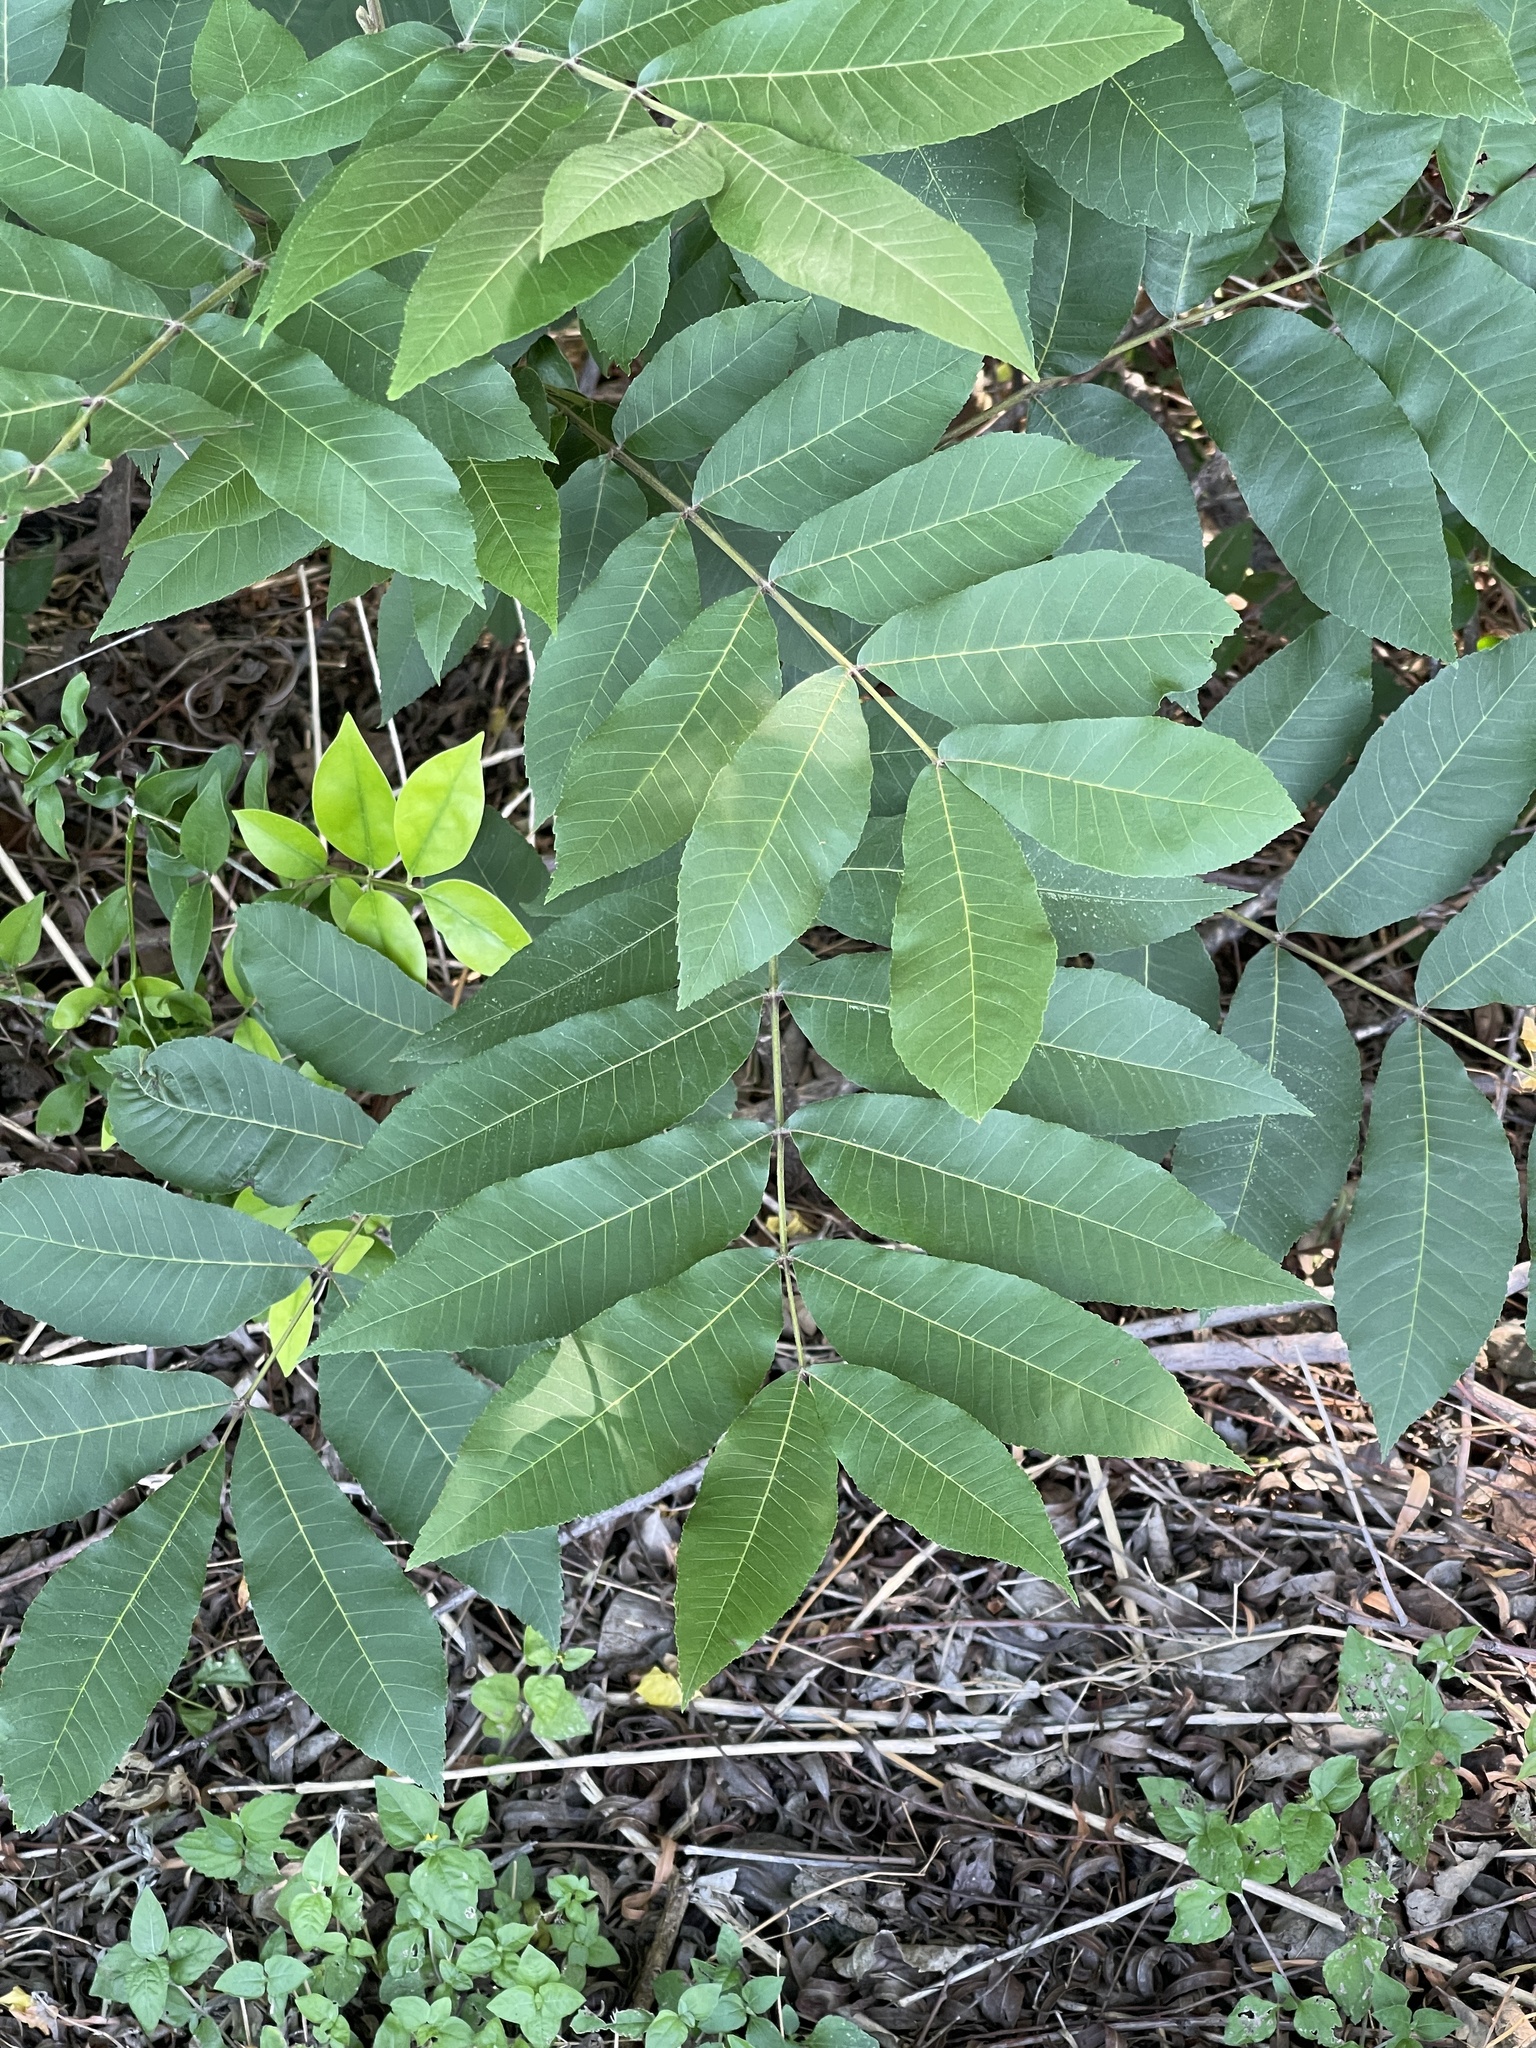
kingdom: Plantae
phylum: Tracheophyta
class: Magnoliopsida
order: Fagales
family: Juglandaceae
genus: Carya
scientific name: Carya illinoinensis
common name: Pecan
